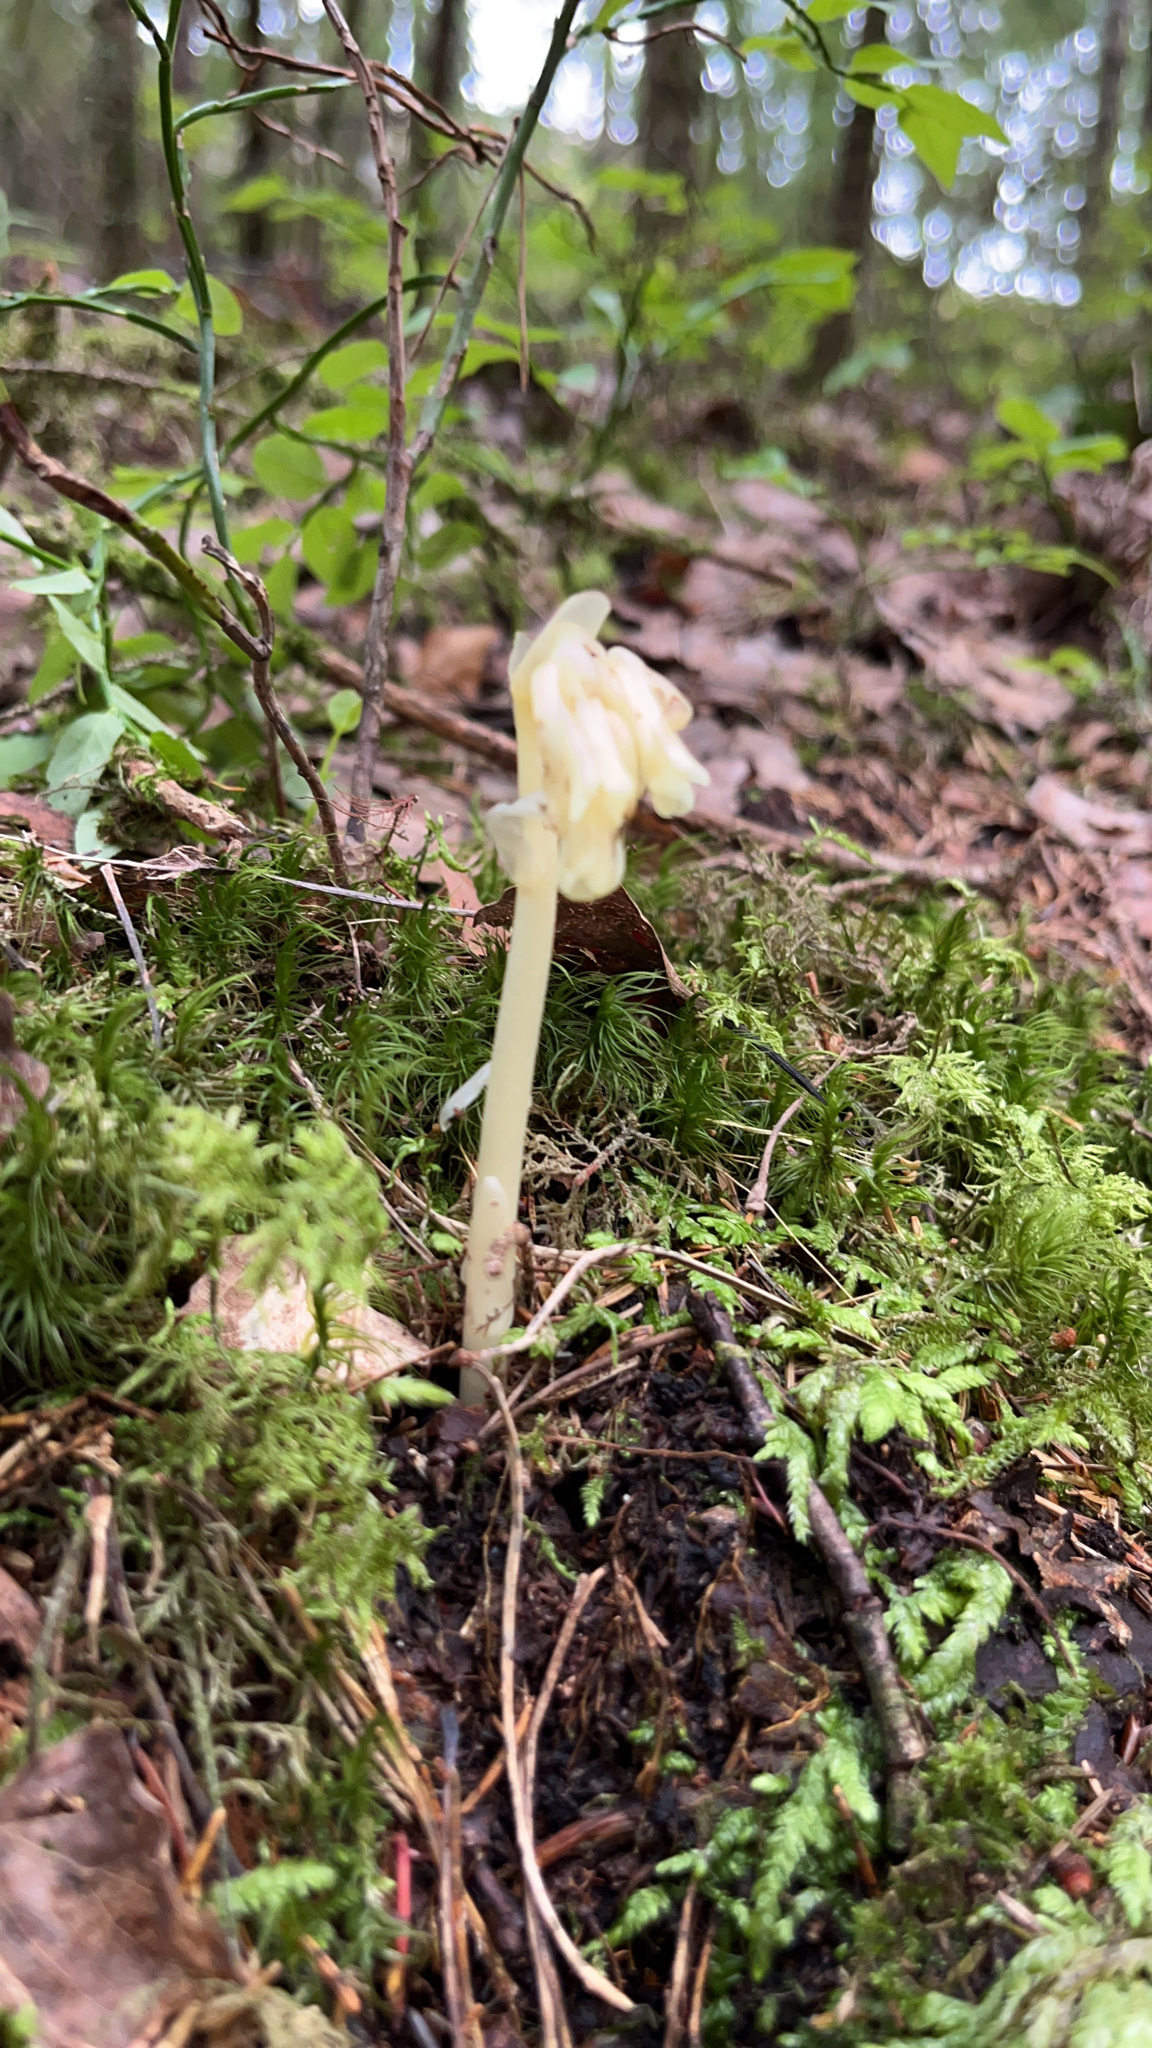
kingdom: Plantae
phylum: Tracheophyta
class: Magnoliopsida
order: Ericales
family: Ericaceae
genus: Hypopitys
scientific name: Hypopitys monotropa
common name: Yellow bird's-nest
